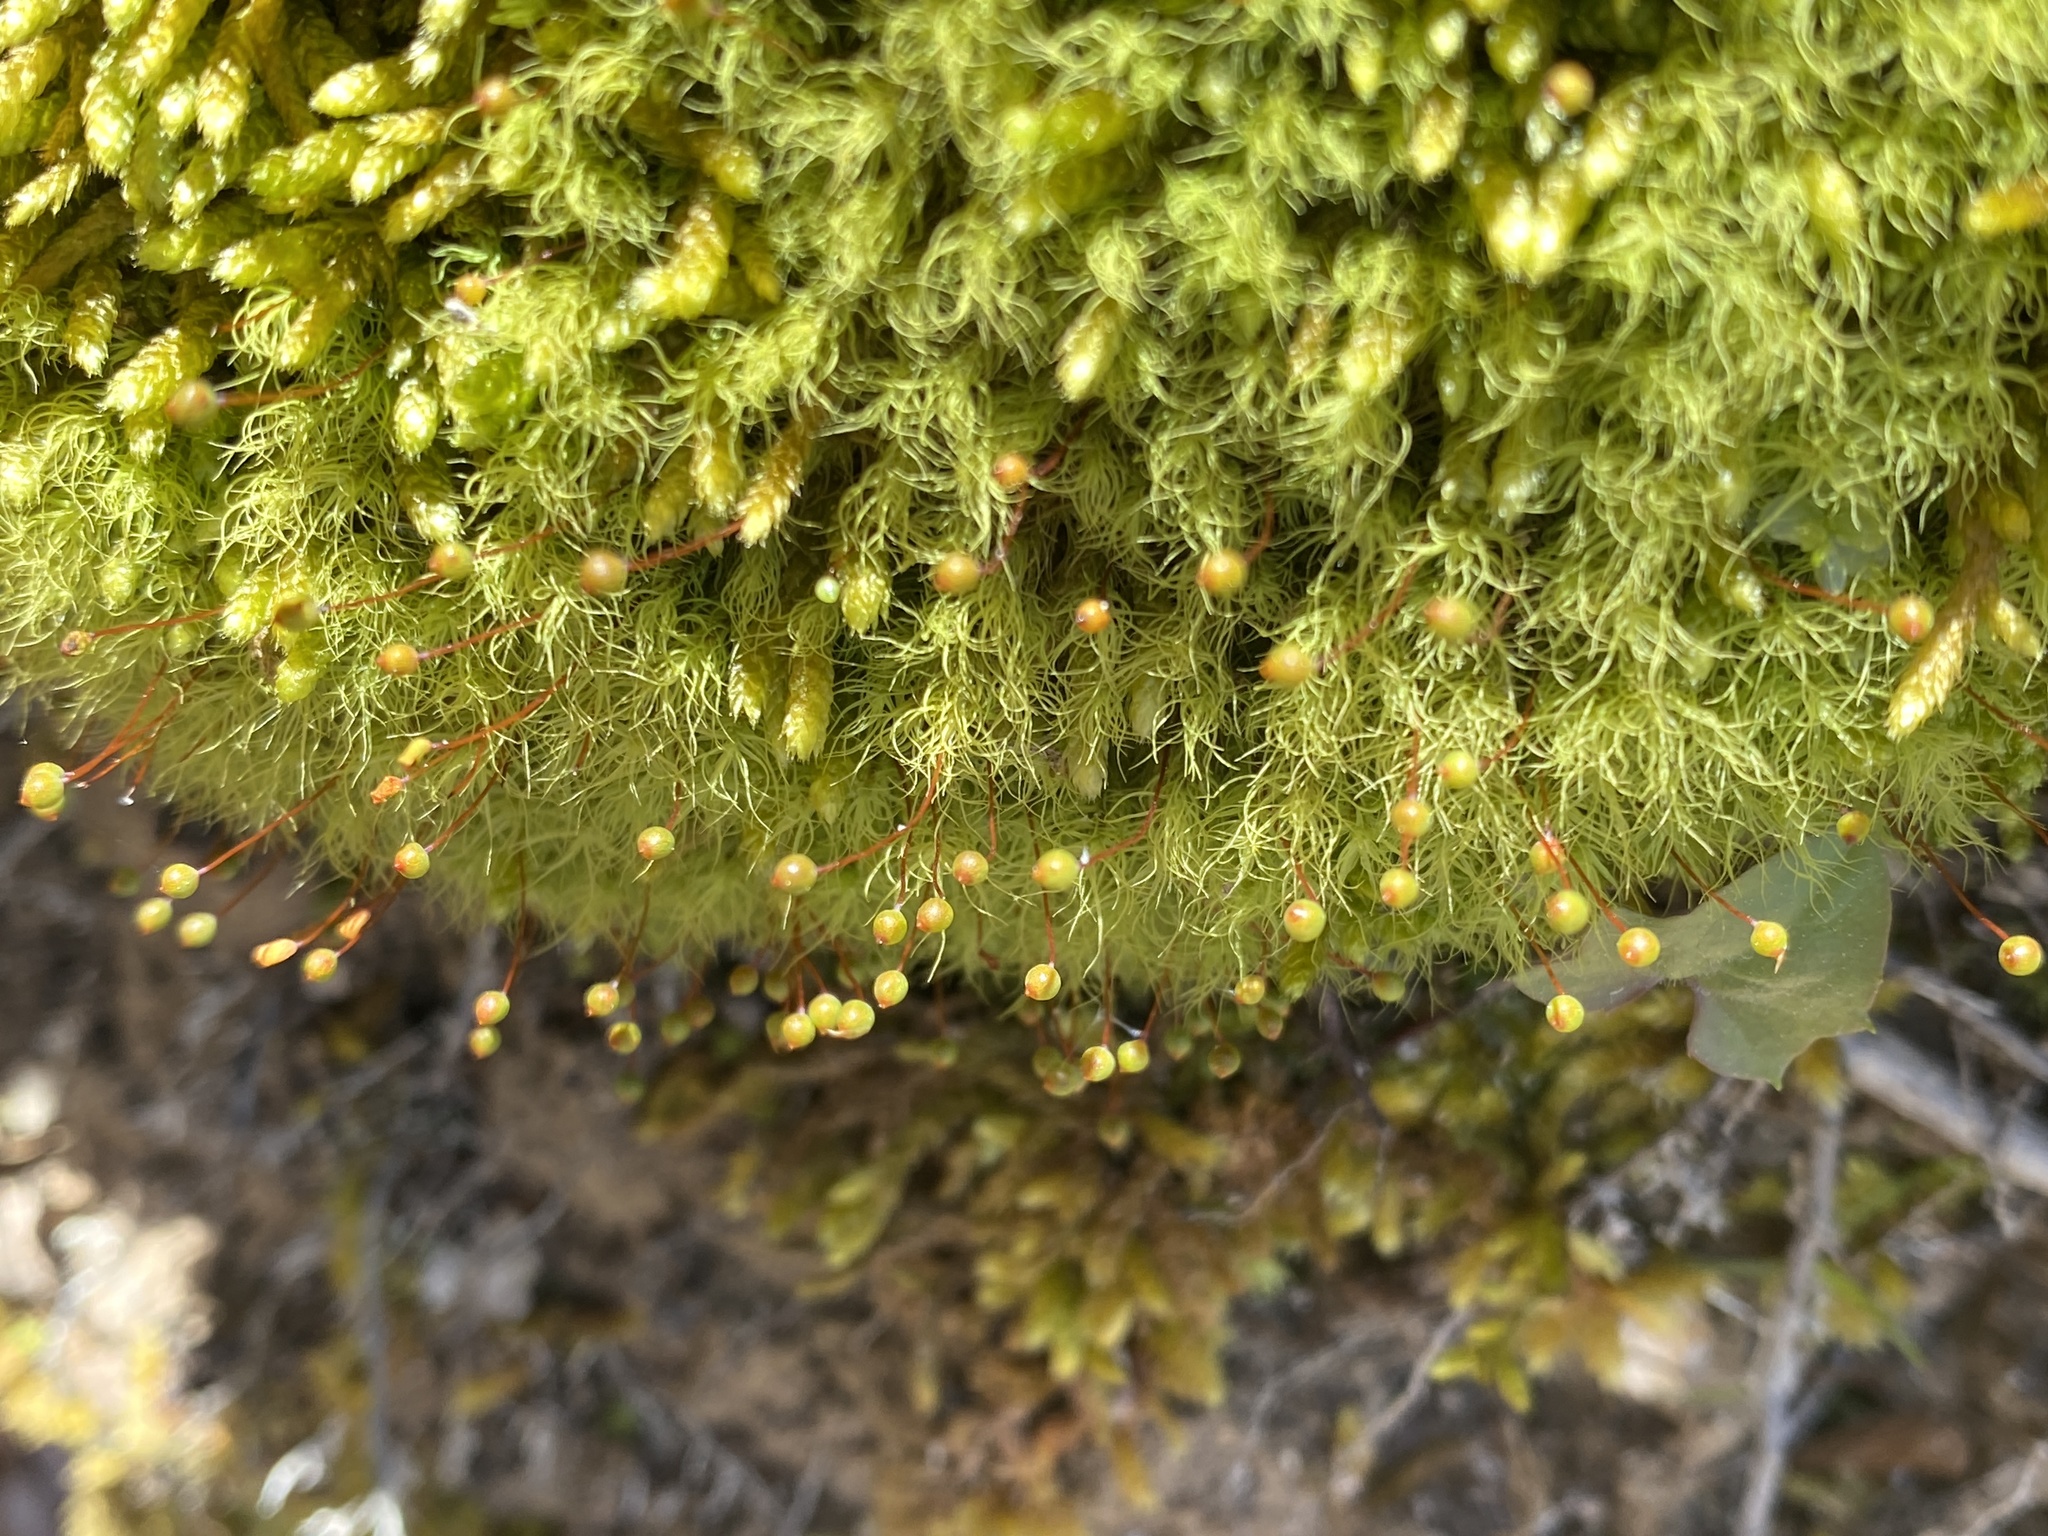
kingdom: Plantae
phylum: Bryophyta
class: Bryopsida
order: Bartramiales
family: Bartramiaceae
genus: Bartramia
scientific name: Bartramia ithyphylla
